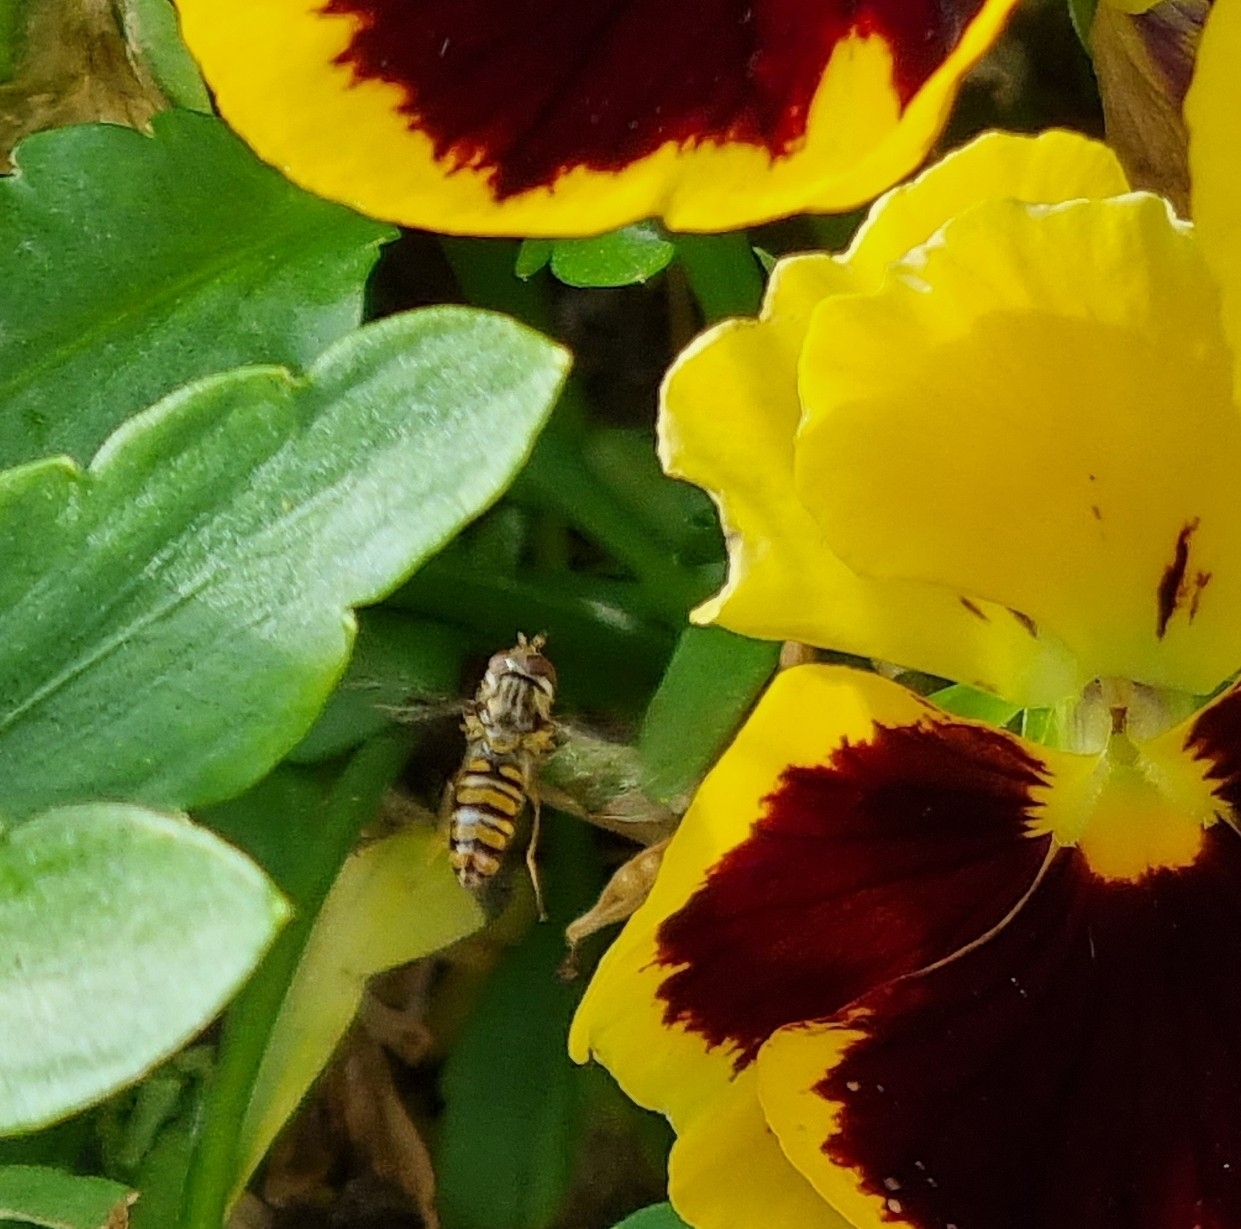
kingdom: Animalia
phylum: Arthropoda
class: Insecta
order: Diptera
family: Syrphidae
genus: Episyrphus
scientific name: Episyrphus balteatus
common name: Marmalade hoverfly
